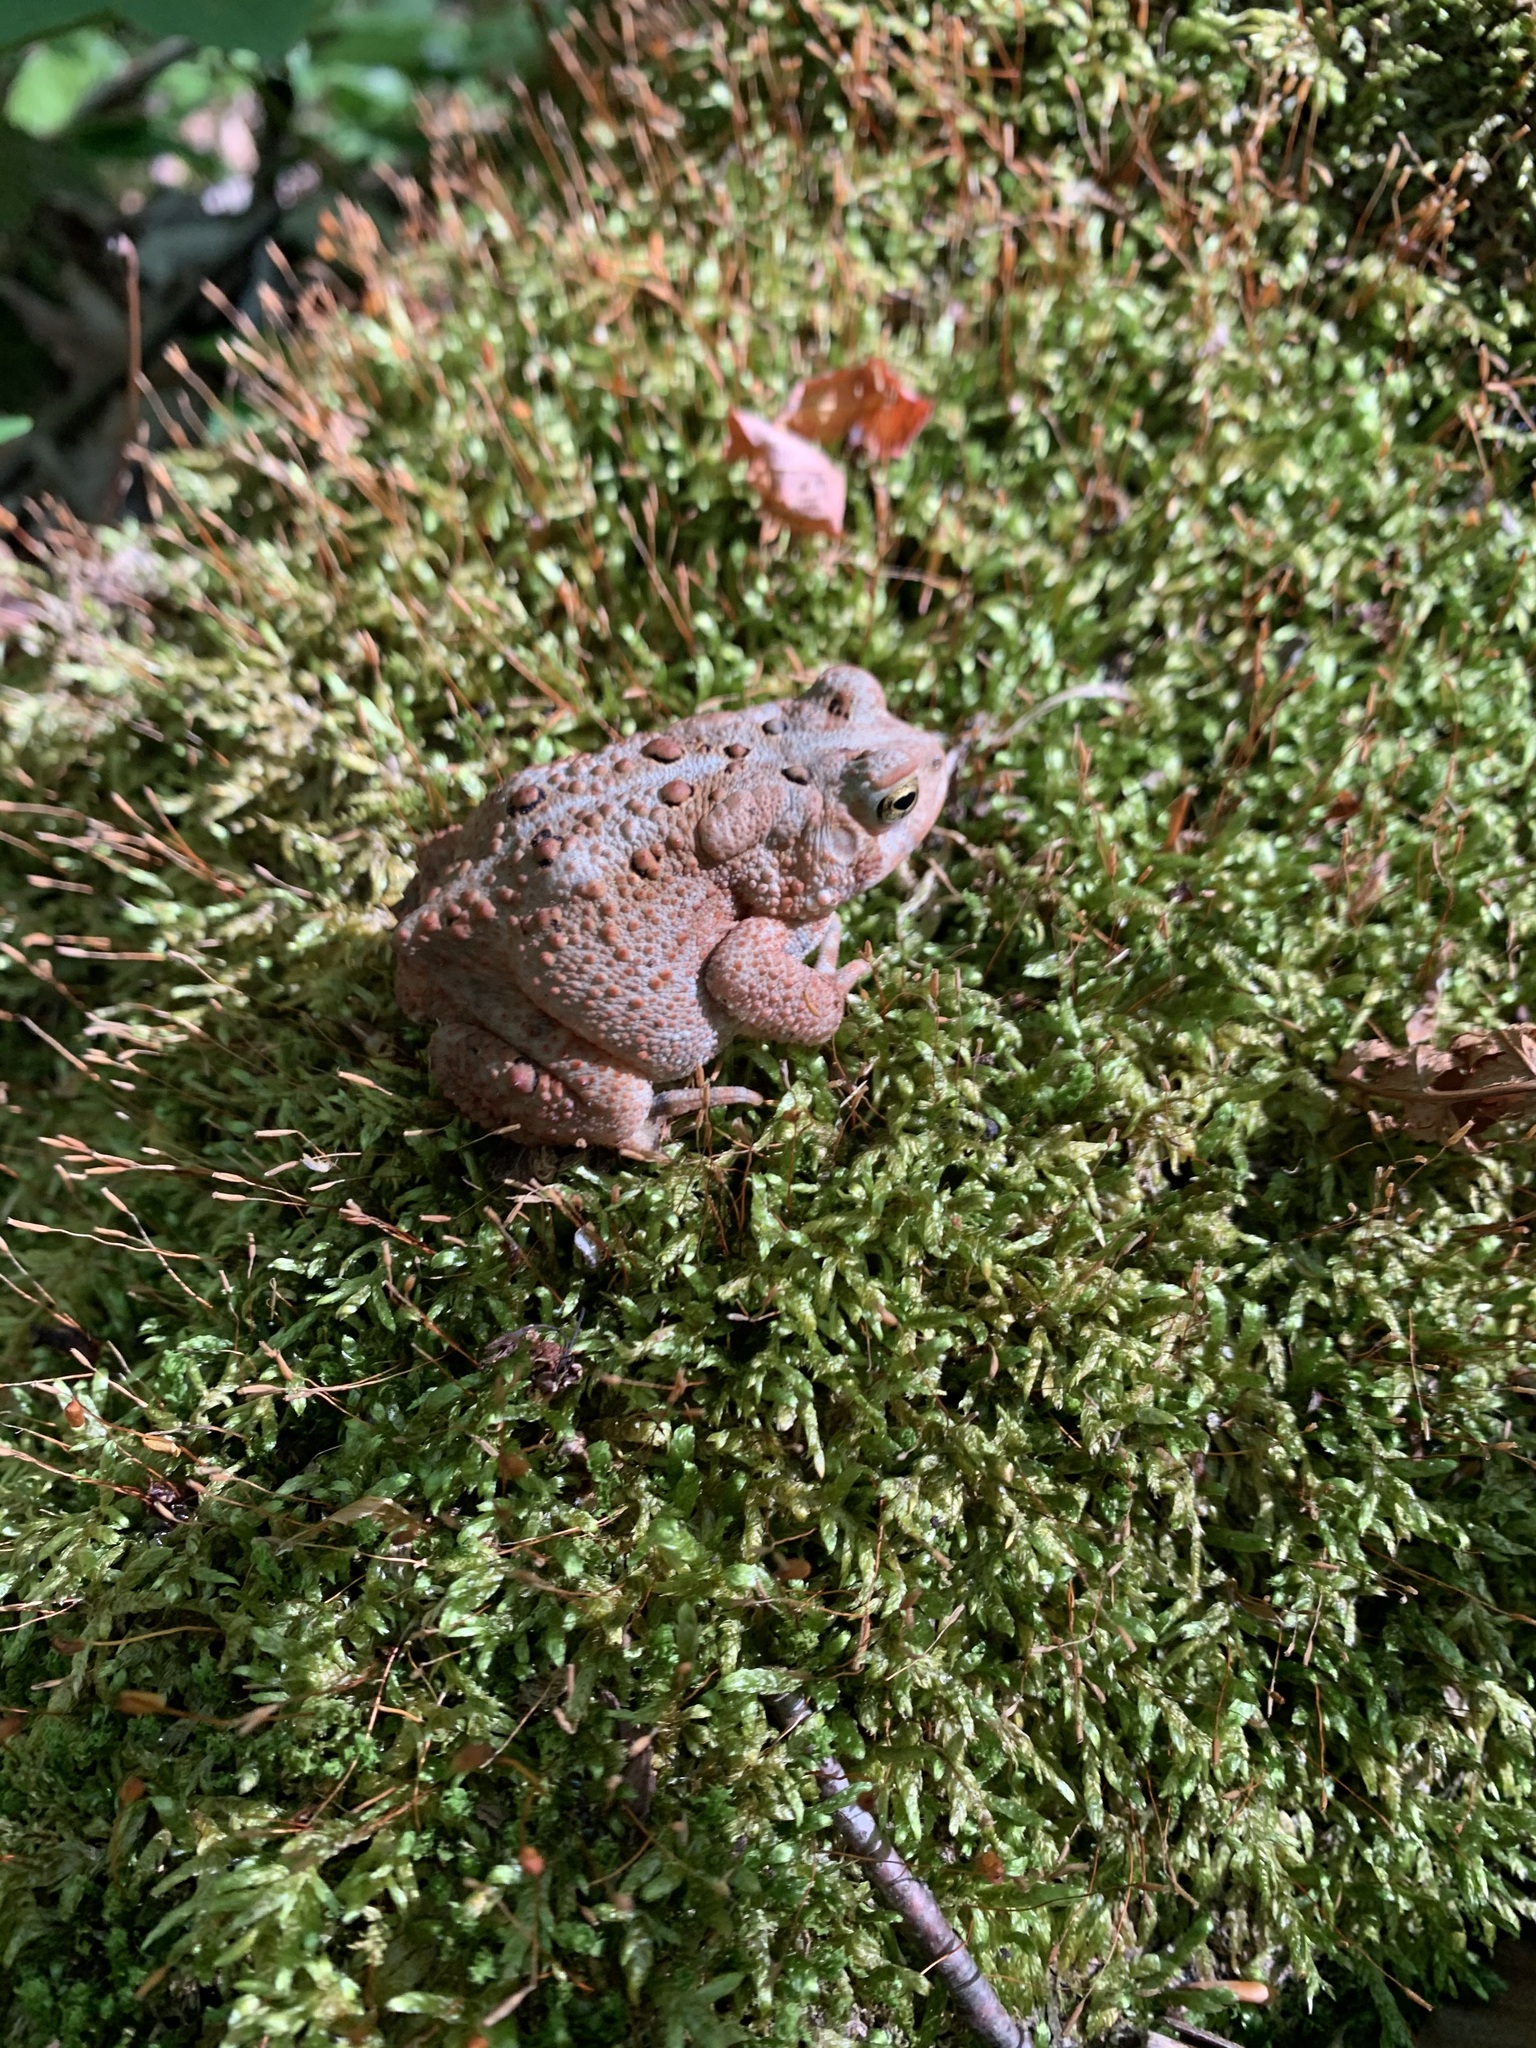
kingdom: Animalia
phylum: Chordata
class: Amphibia
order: Anura
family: Bufonidae
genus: Anaxyrus
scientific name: Anaxyrus americanus
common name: American toad
